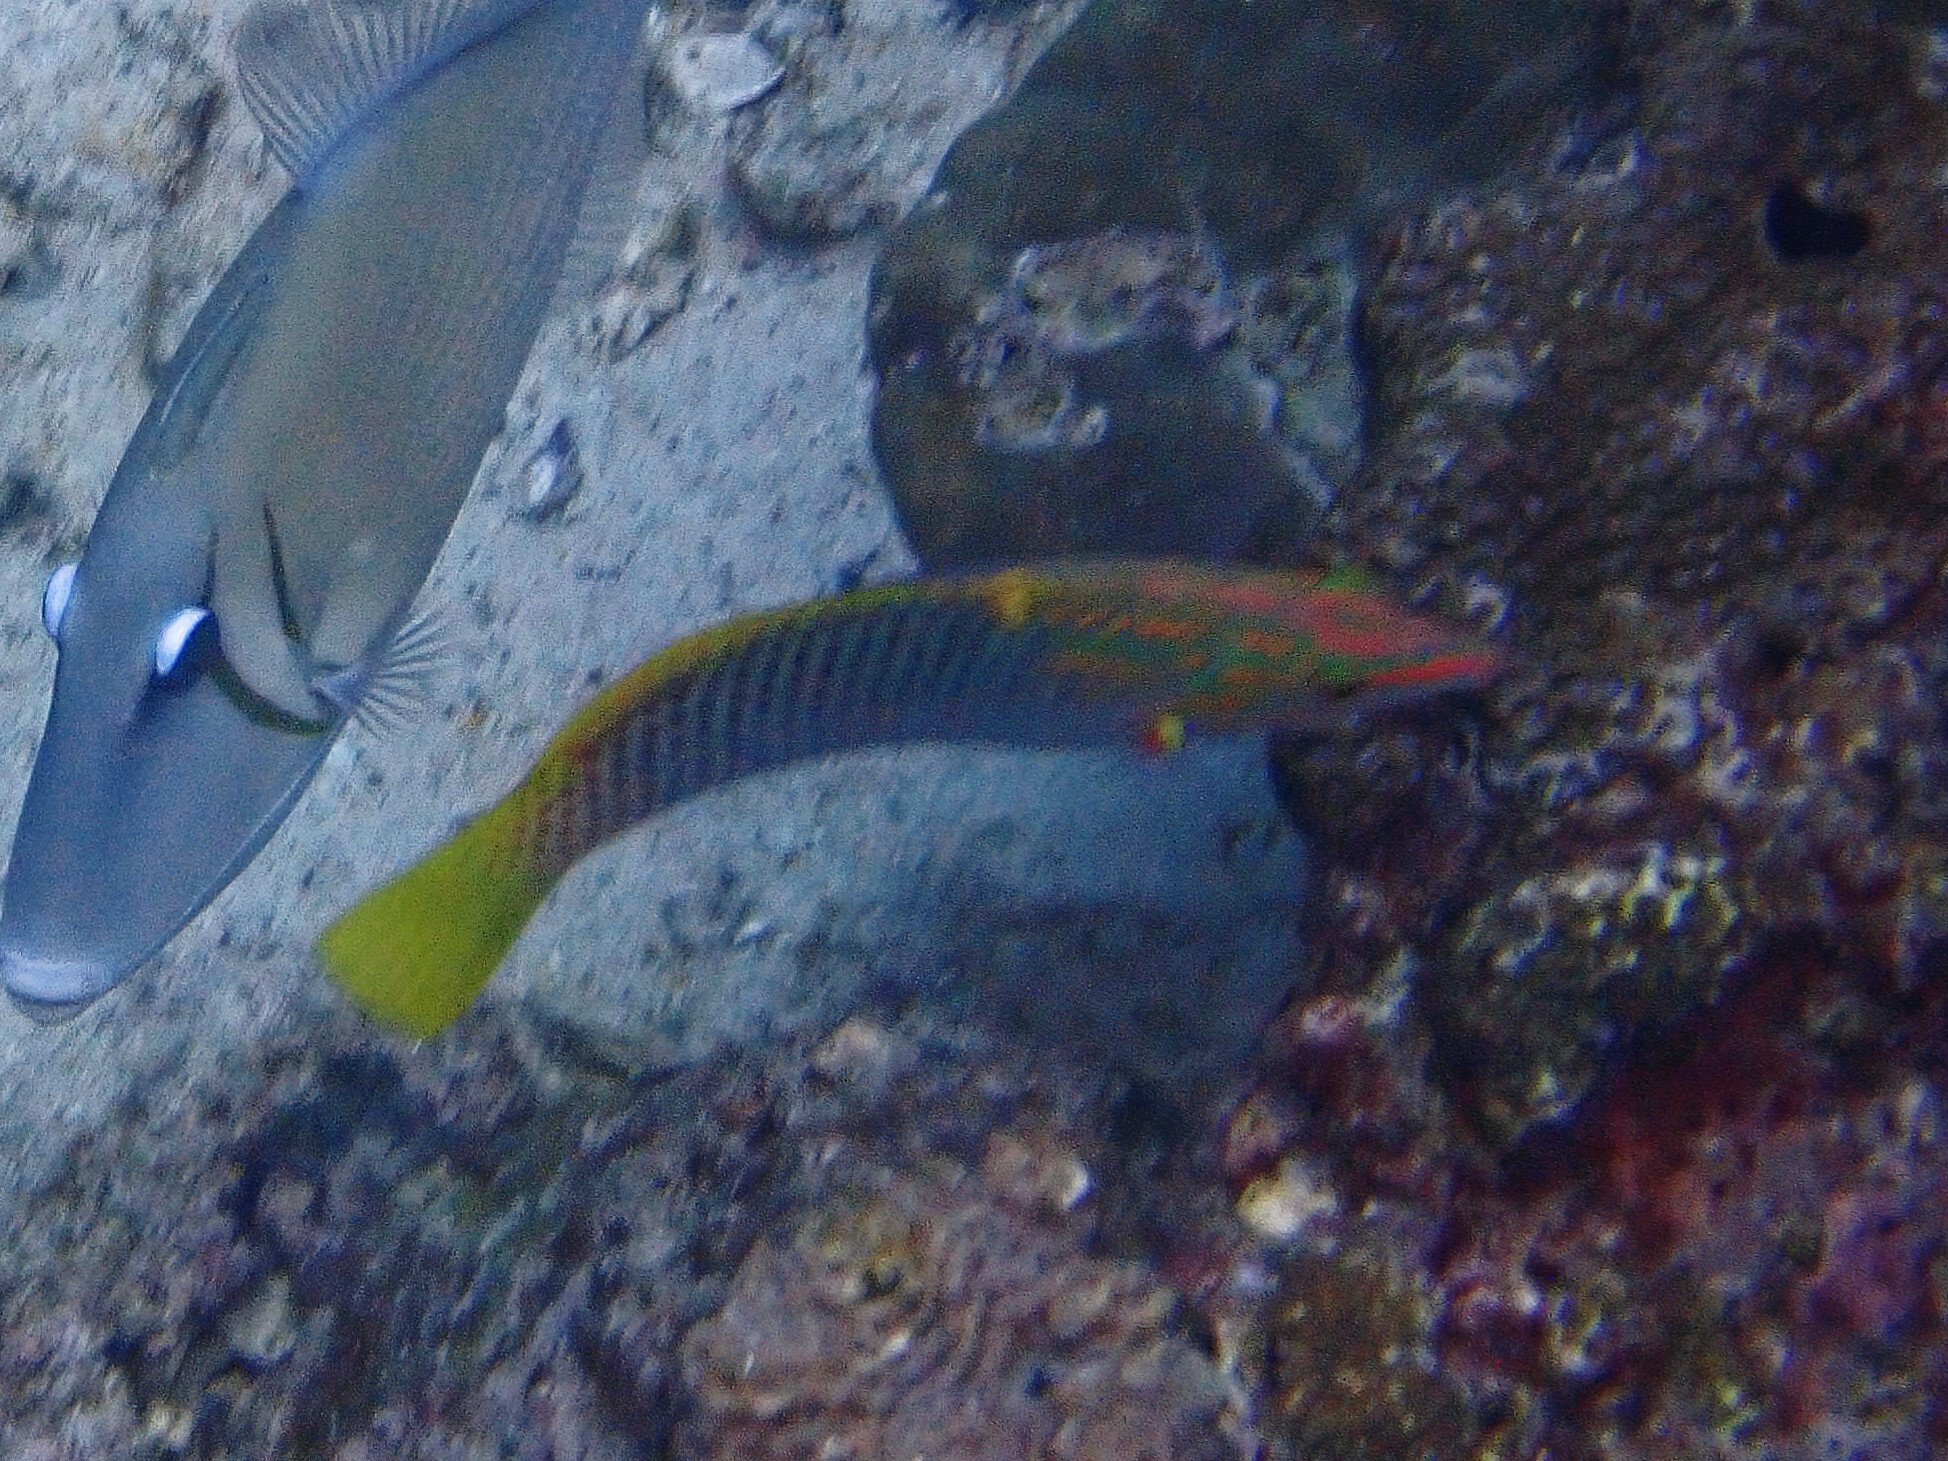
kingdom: Animalia
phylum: Chordata
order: Perciformes
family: Labridae
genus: Halichoeres
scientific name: Halichoeres hortulanus
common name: Checkerboard wrasse
